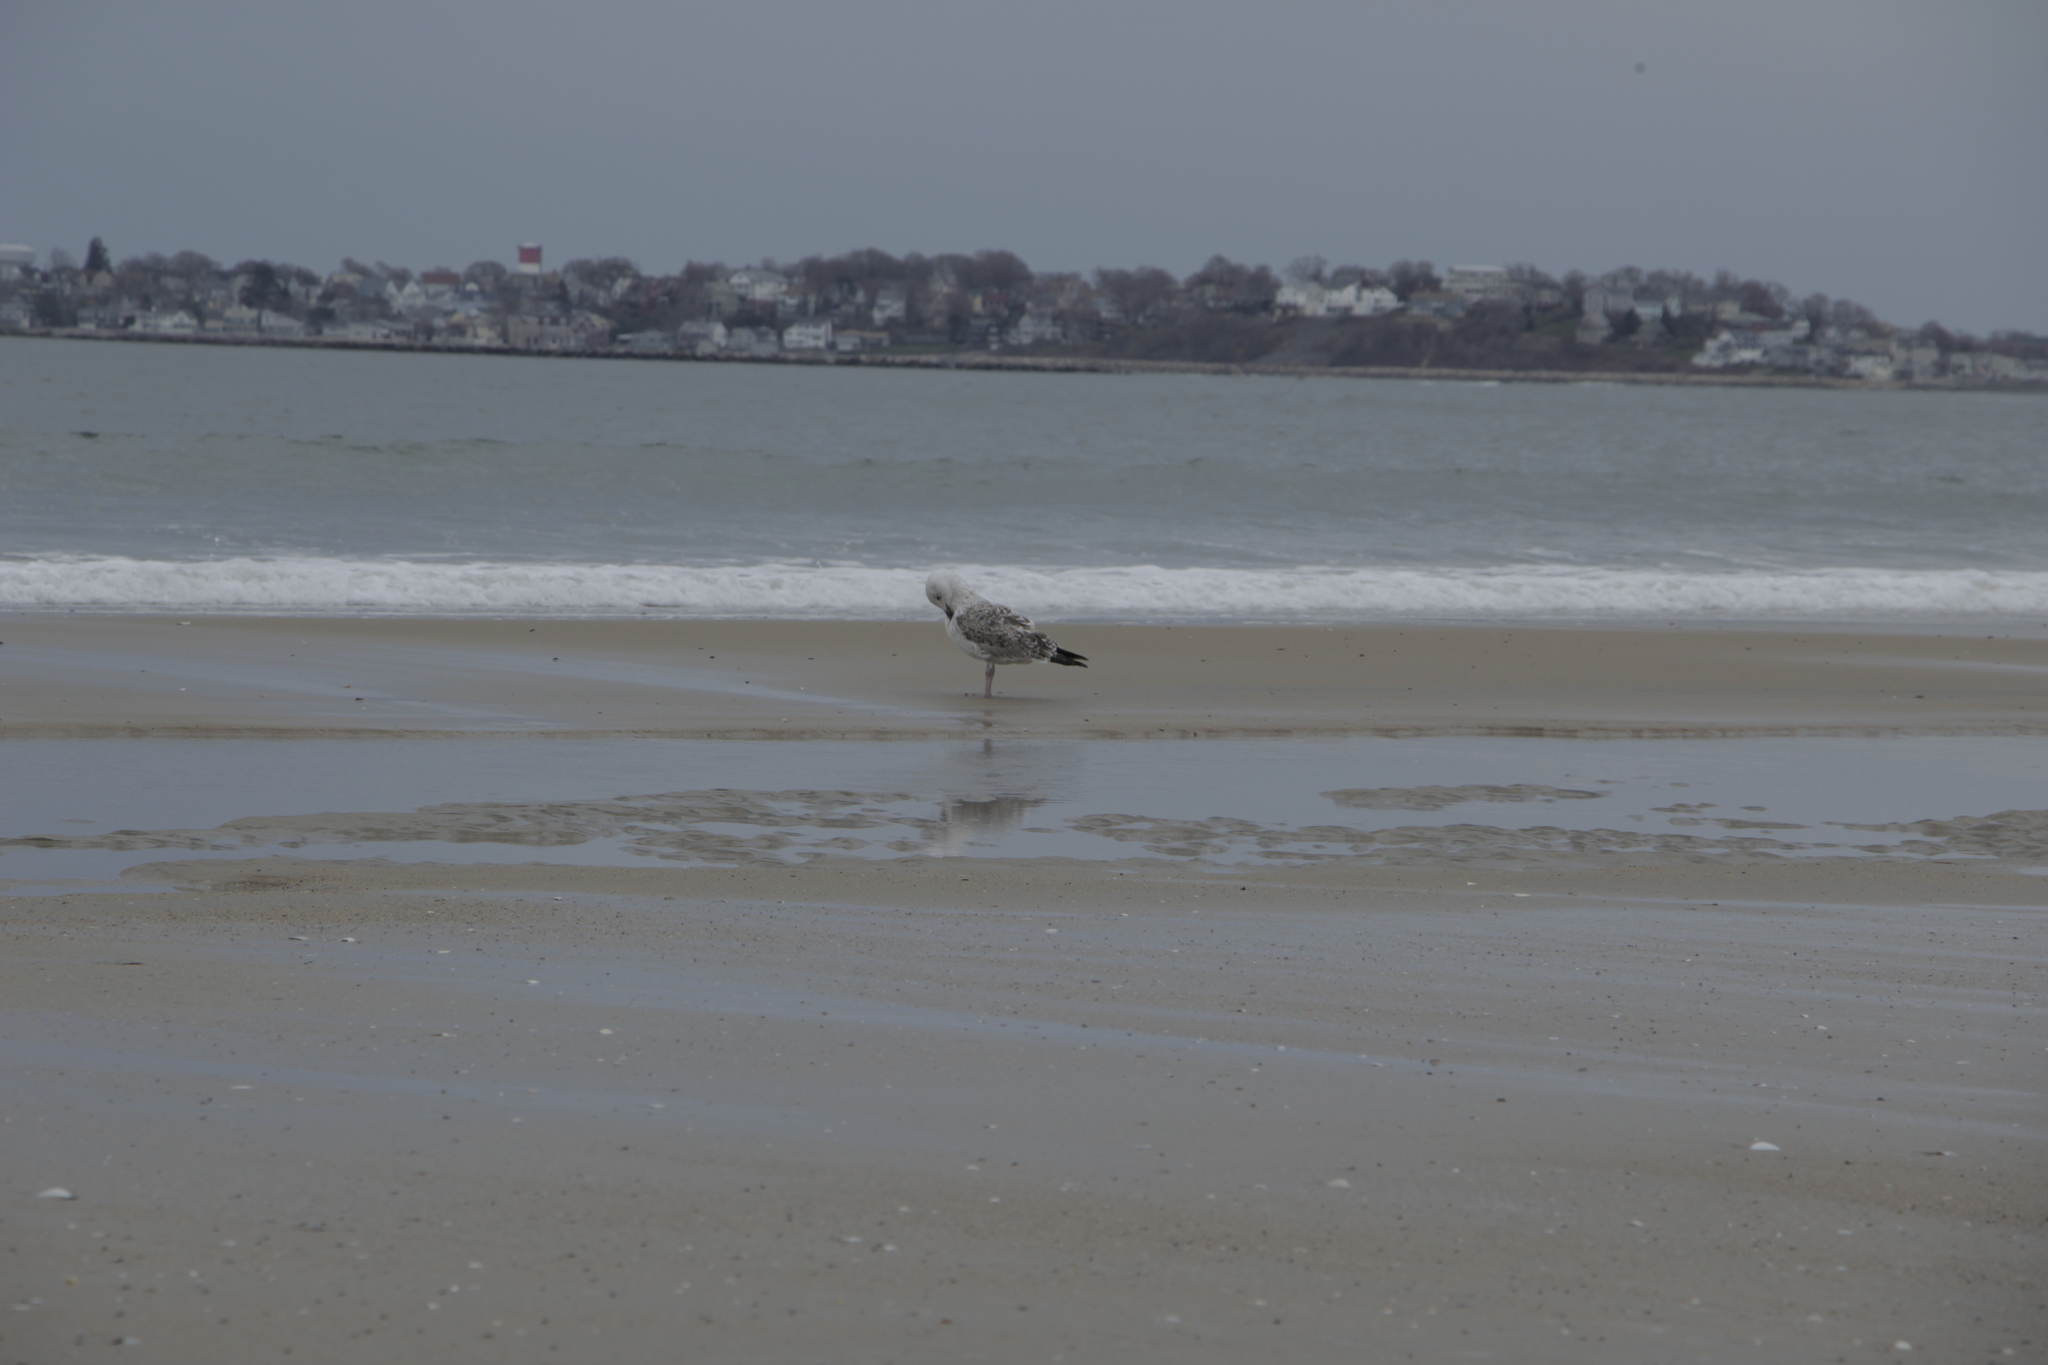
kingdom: Animalia
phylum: Chordata
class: Aves
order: Charadriiformes
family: Laridae
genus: Larus
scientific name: Larus marinus
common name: Great black-backed gull
